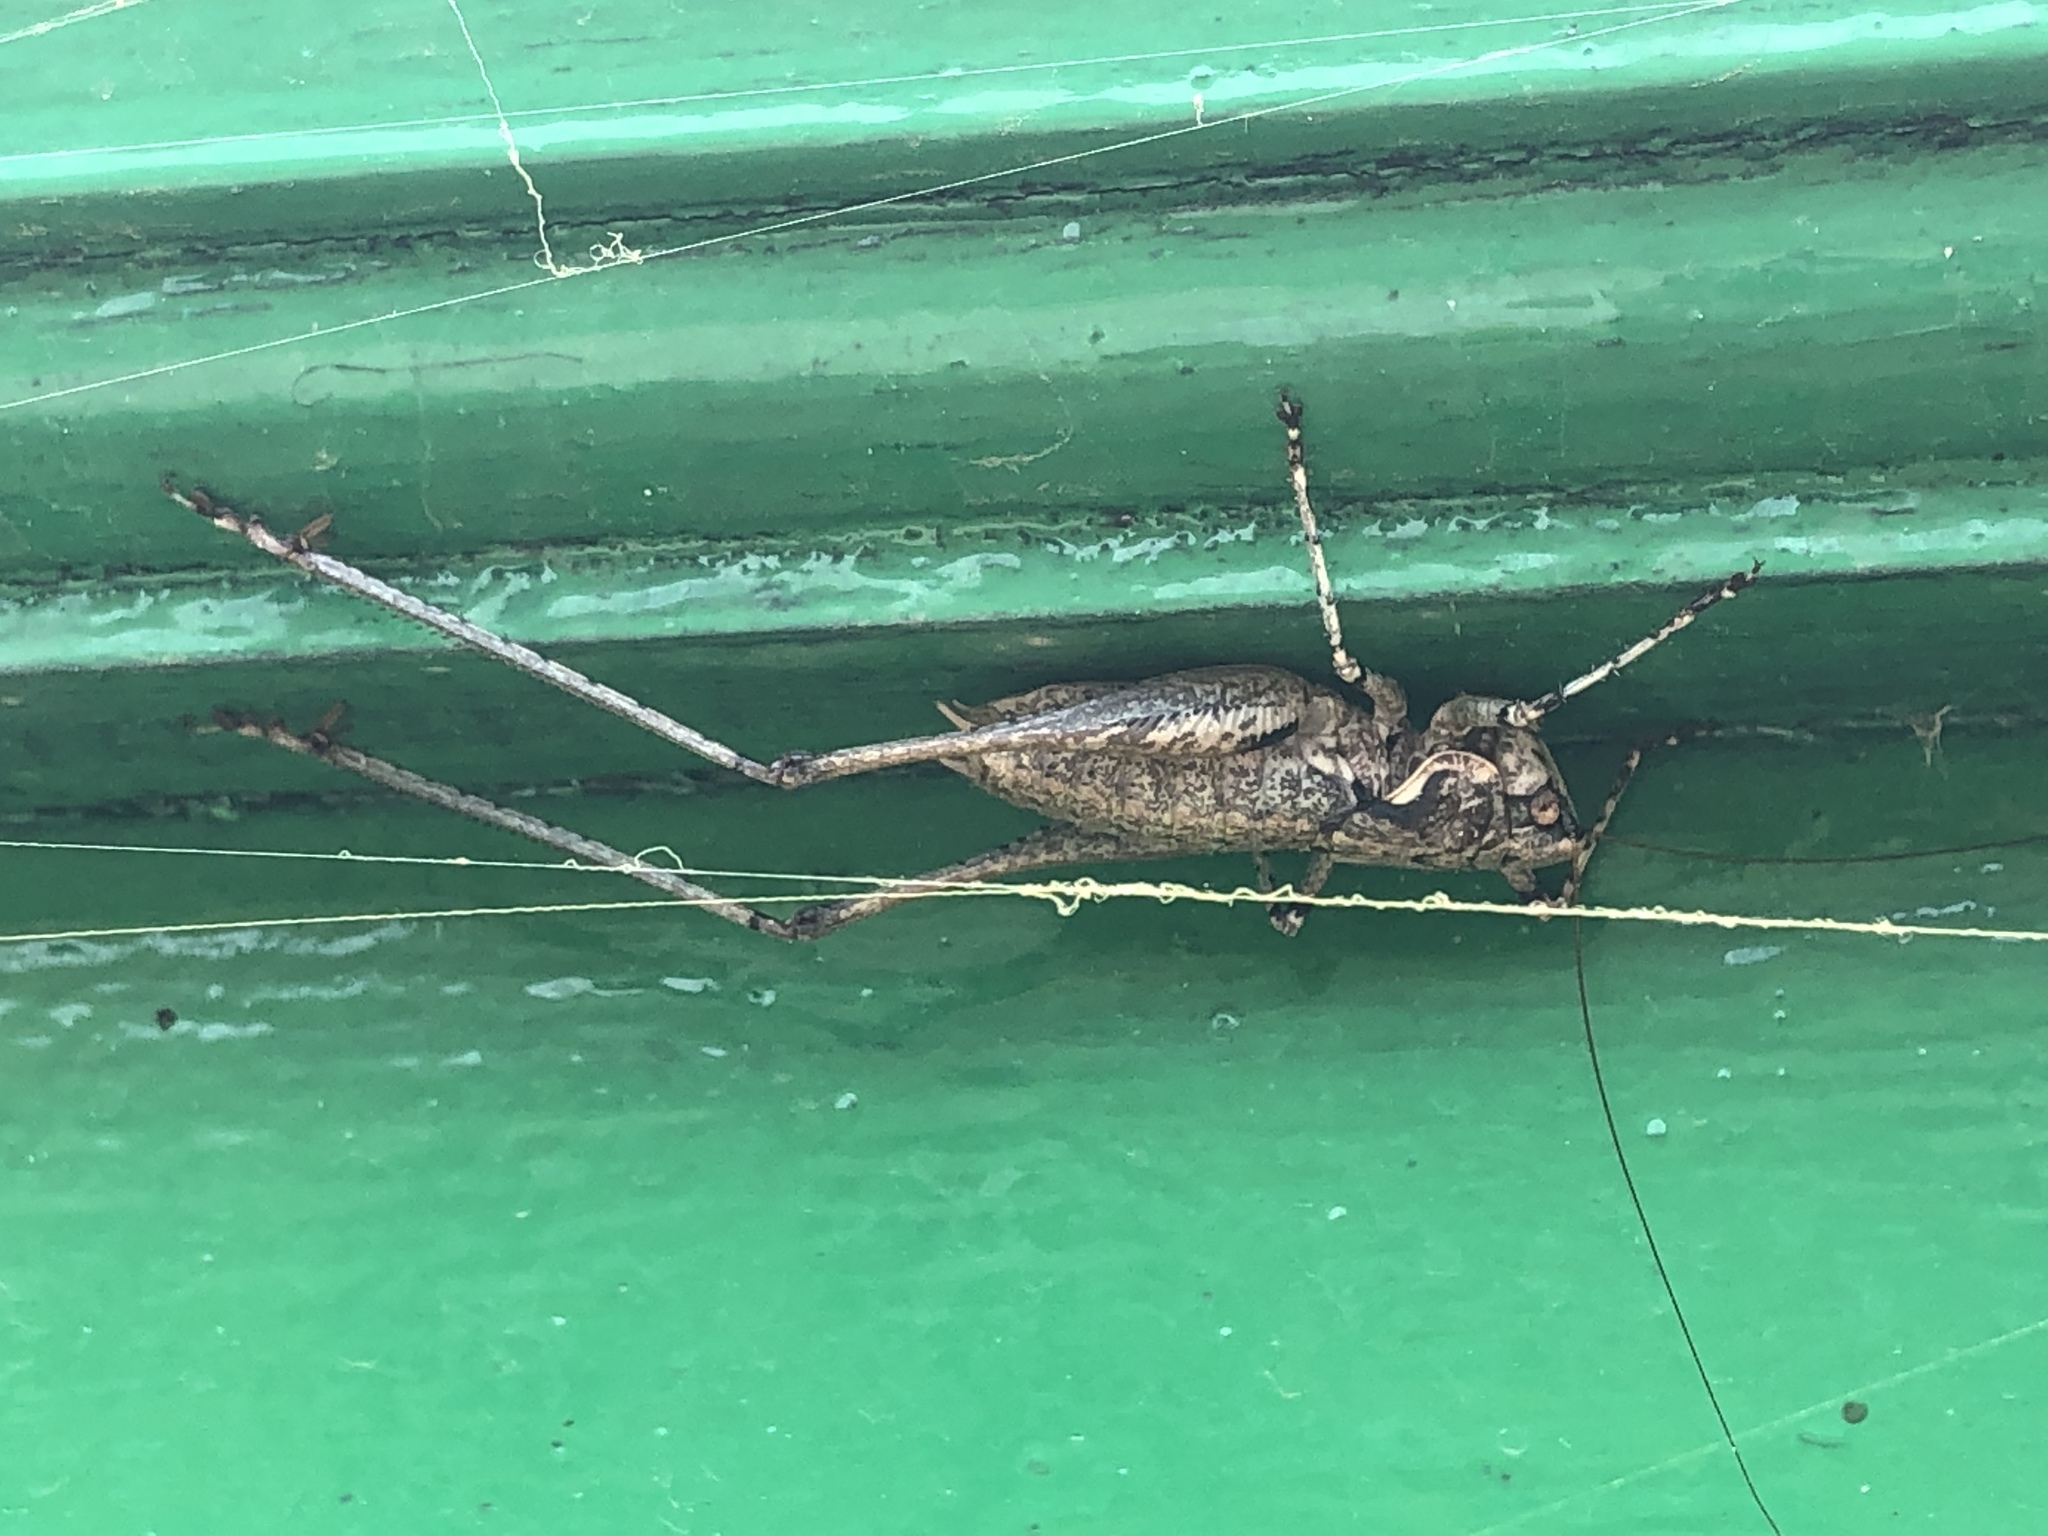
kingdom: Animalia
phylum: Arthropoda
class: Insecta
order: Orthoptera
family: Tettigoniidae
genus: Rhacocleis
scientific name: Rhacocleis
